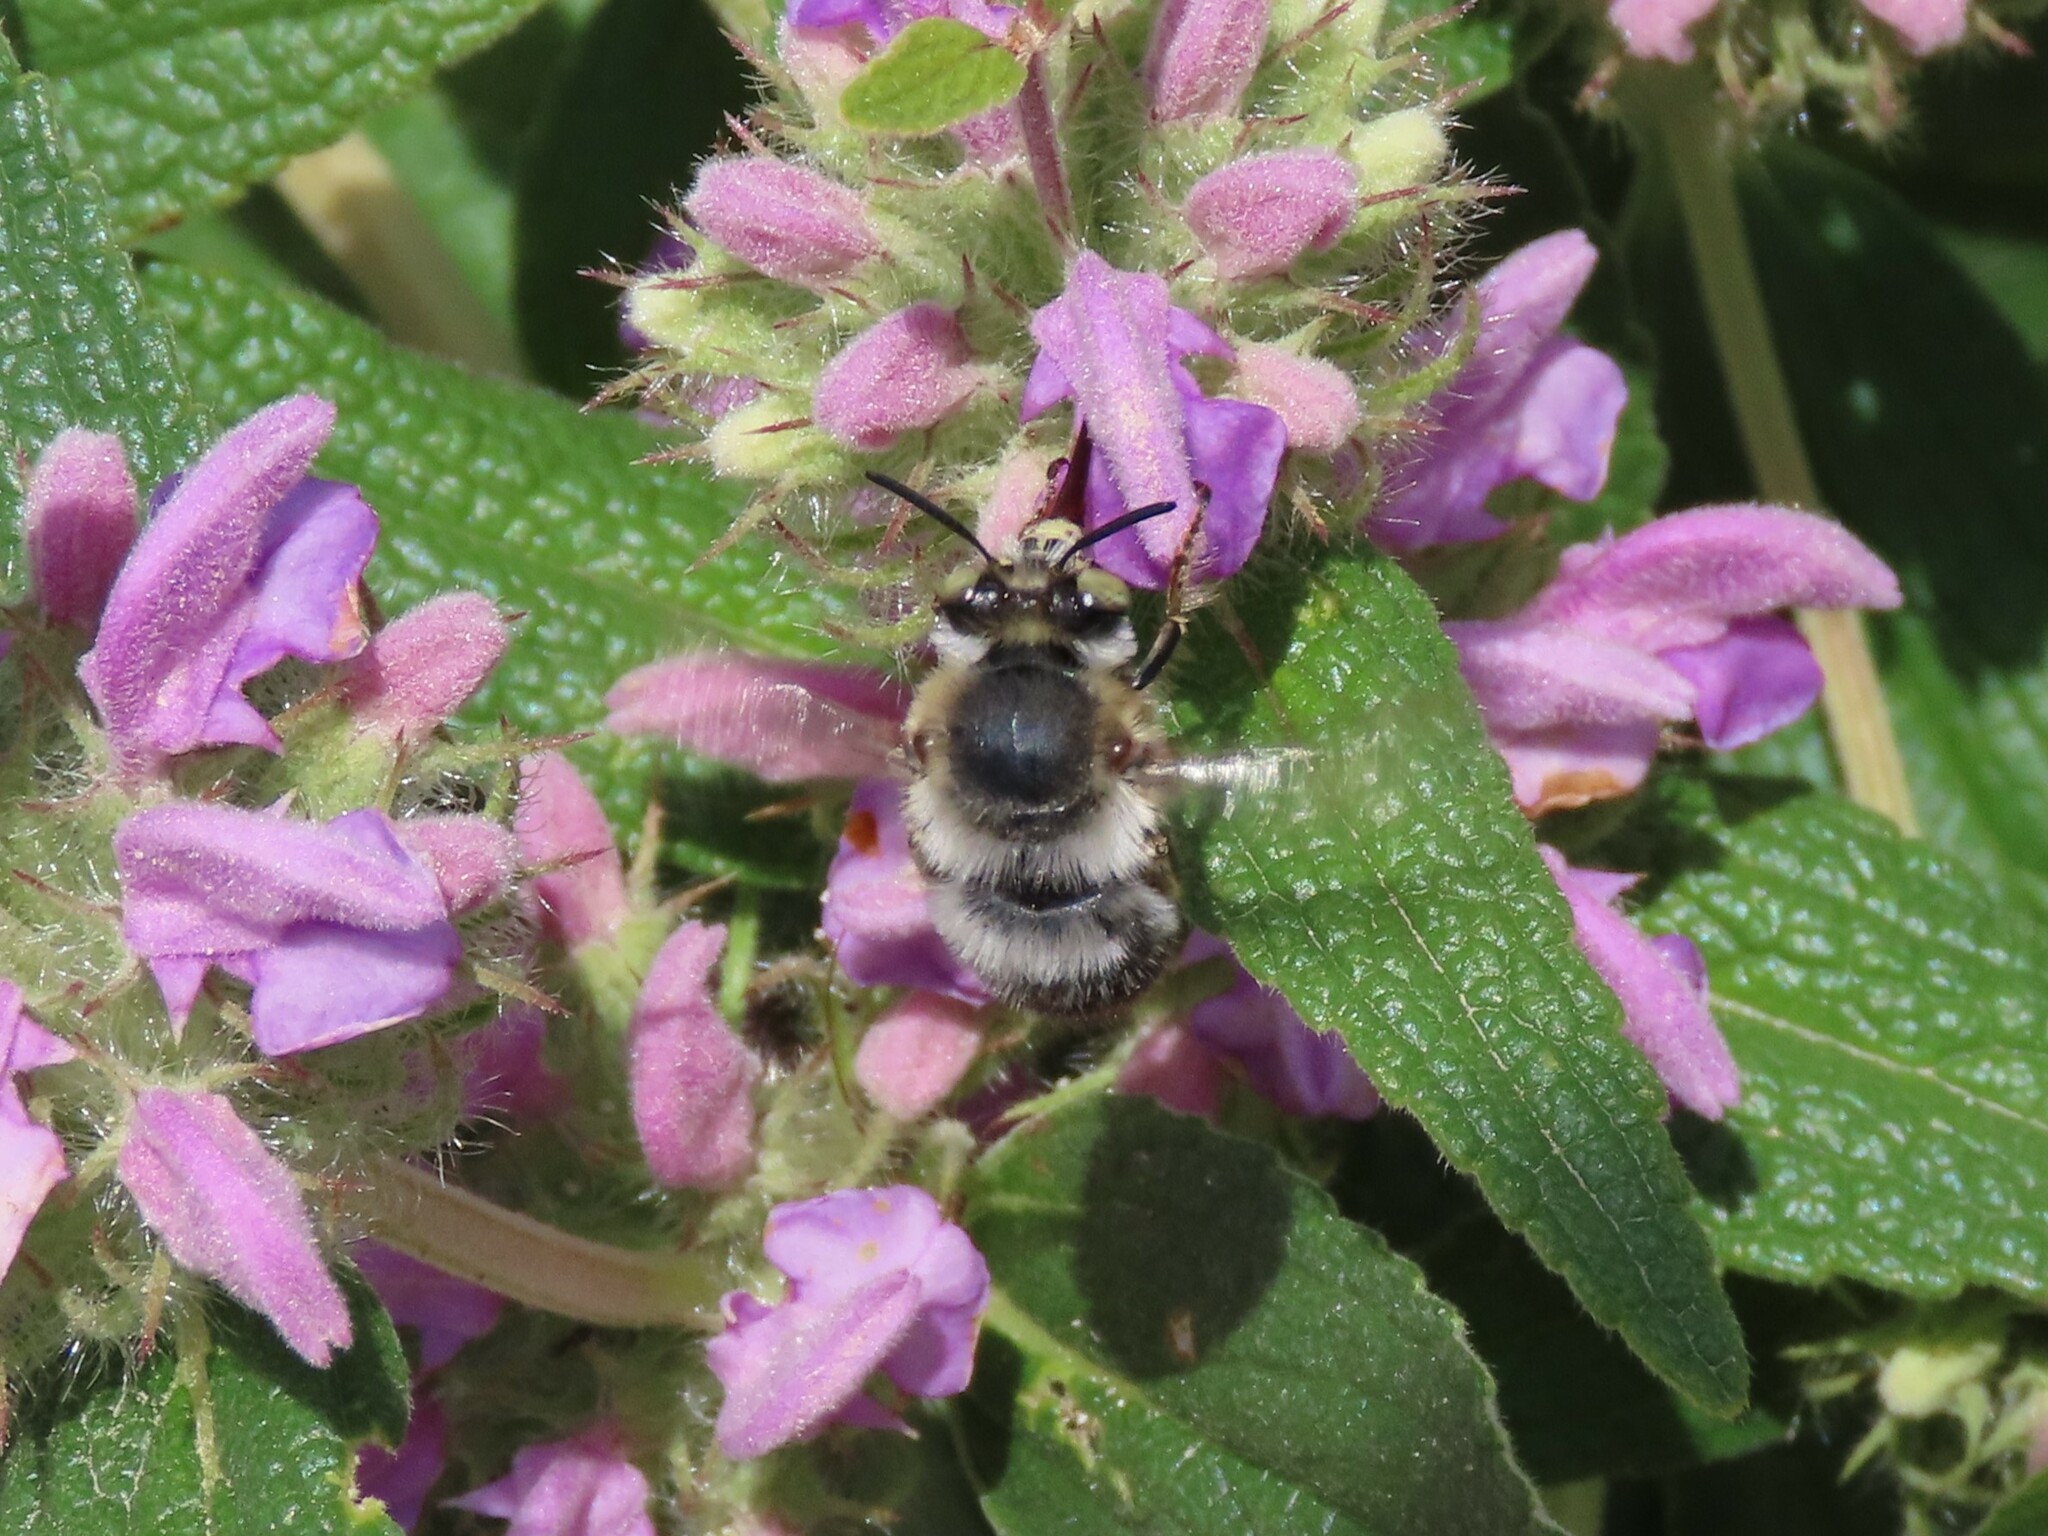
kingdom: Animalia
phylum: Arthropoda
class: Insecta
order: Hymenoptera
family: Apidae
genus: Anthophora
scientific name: Anthophora agama
